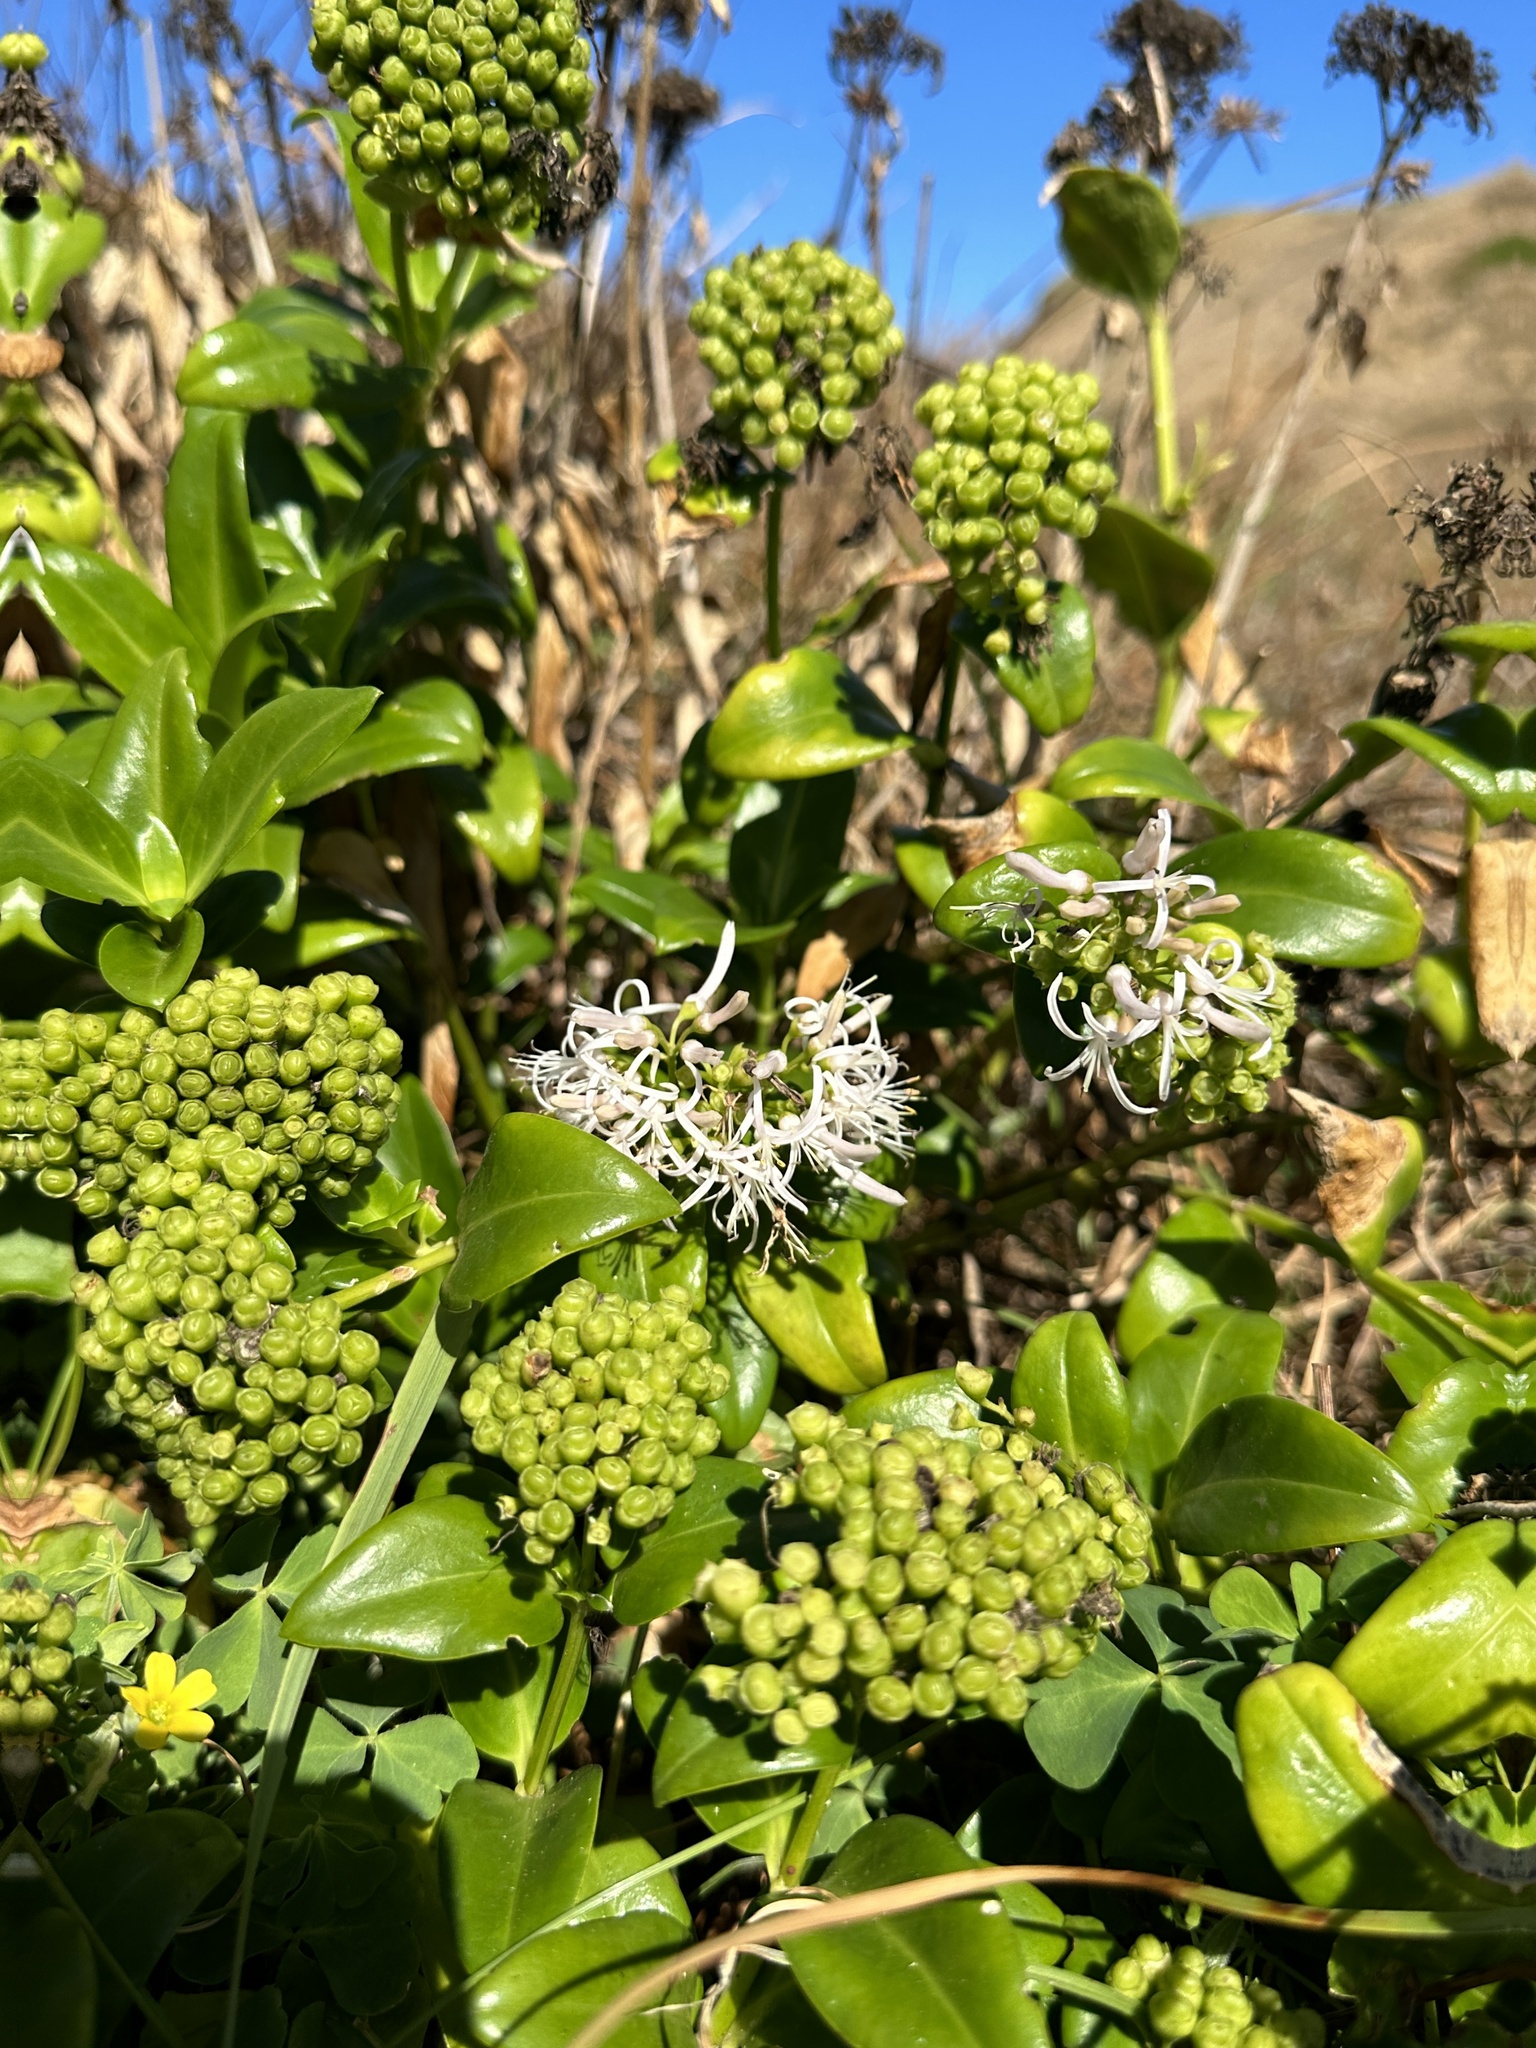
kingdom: Plantae
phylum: Tracheophyta
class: Magnoliopsida
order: Gentianales
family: Rubiaceae
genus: Leptopetalum
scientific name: Leptopetalum grayi
